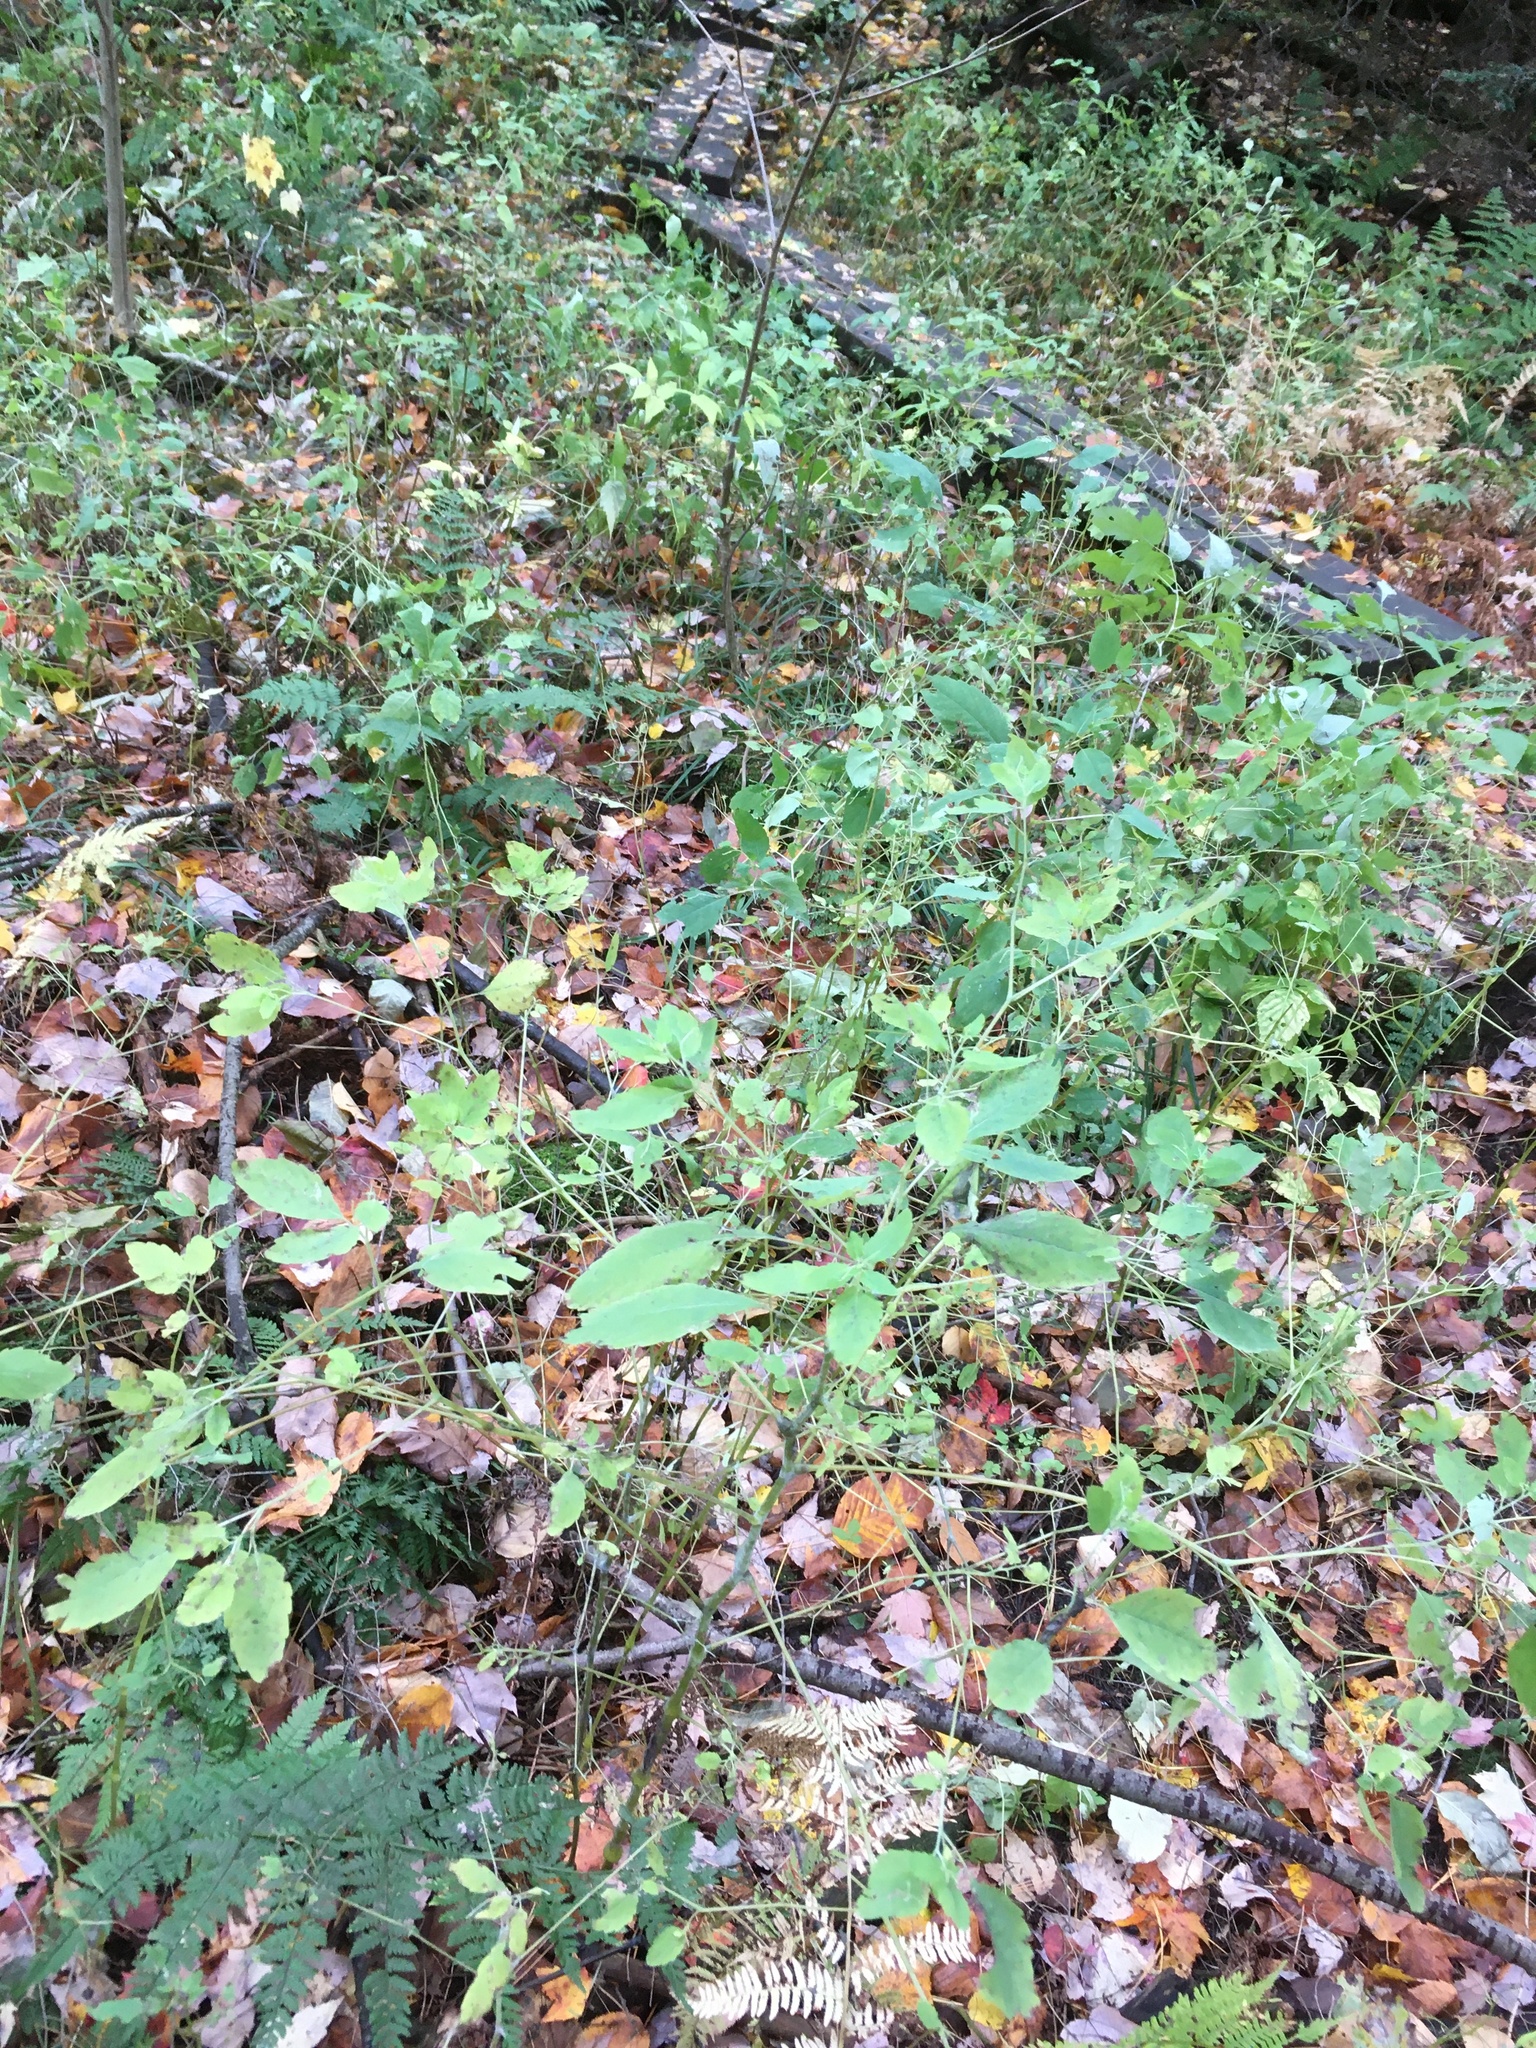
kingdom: Plantae
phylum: Tracheophyta
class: Magnoliopsida
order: Ericales
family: Balsaminaceae
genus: Impatiens
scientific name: Impatiens capensis
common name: Orange balsam
